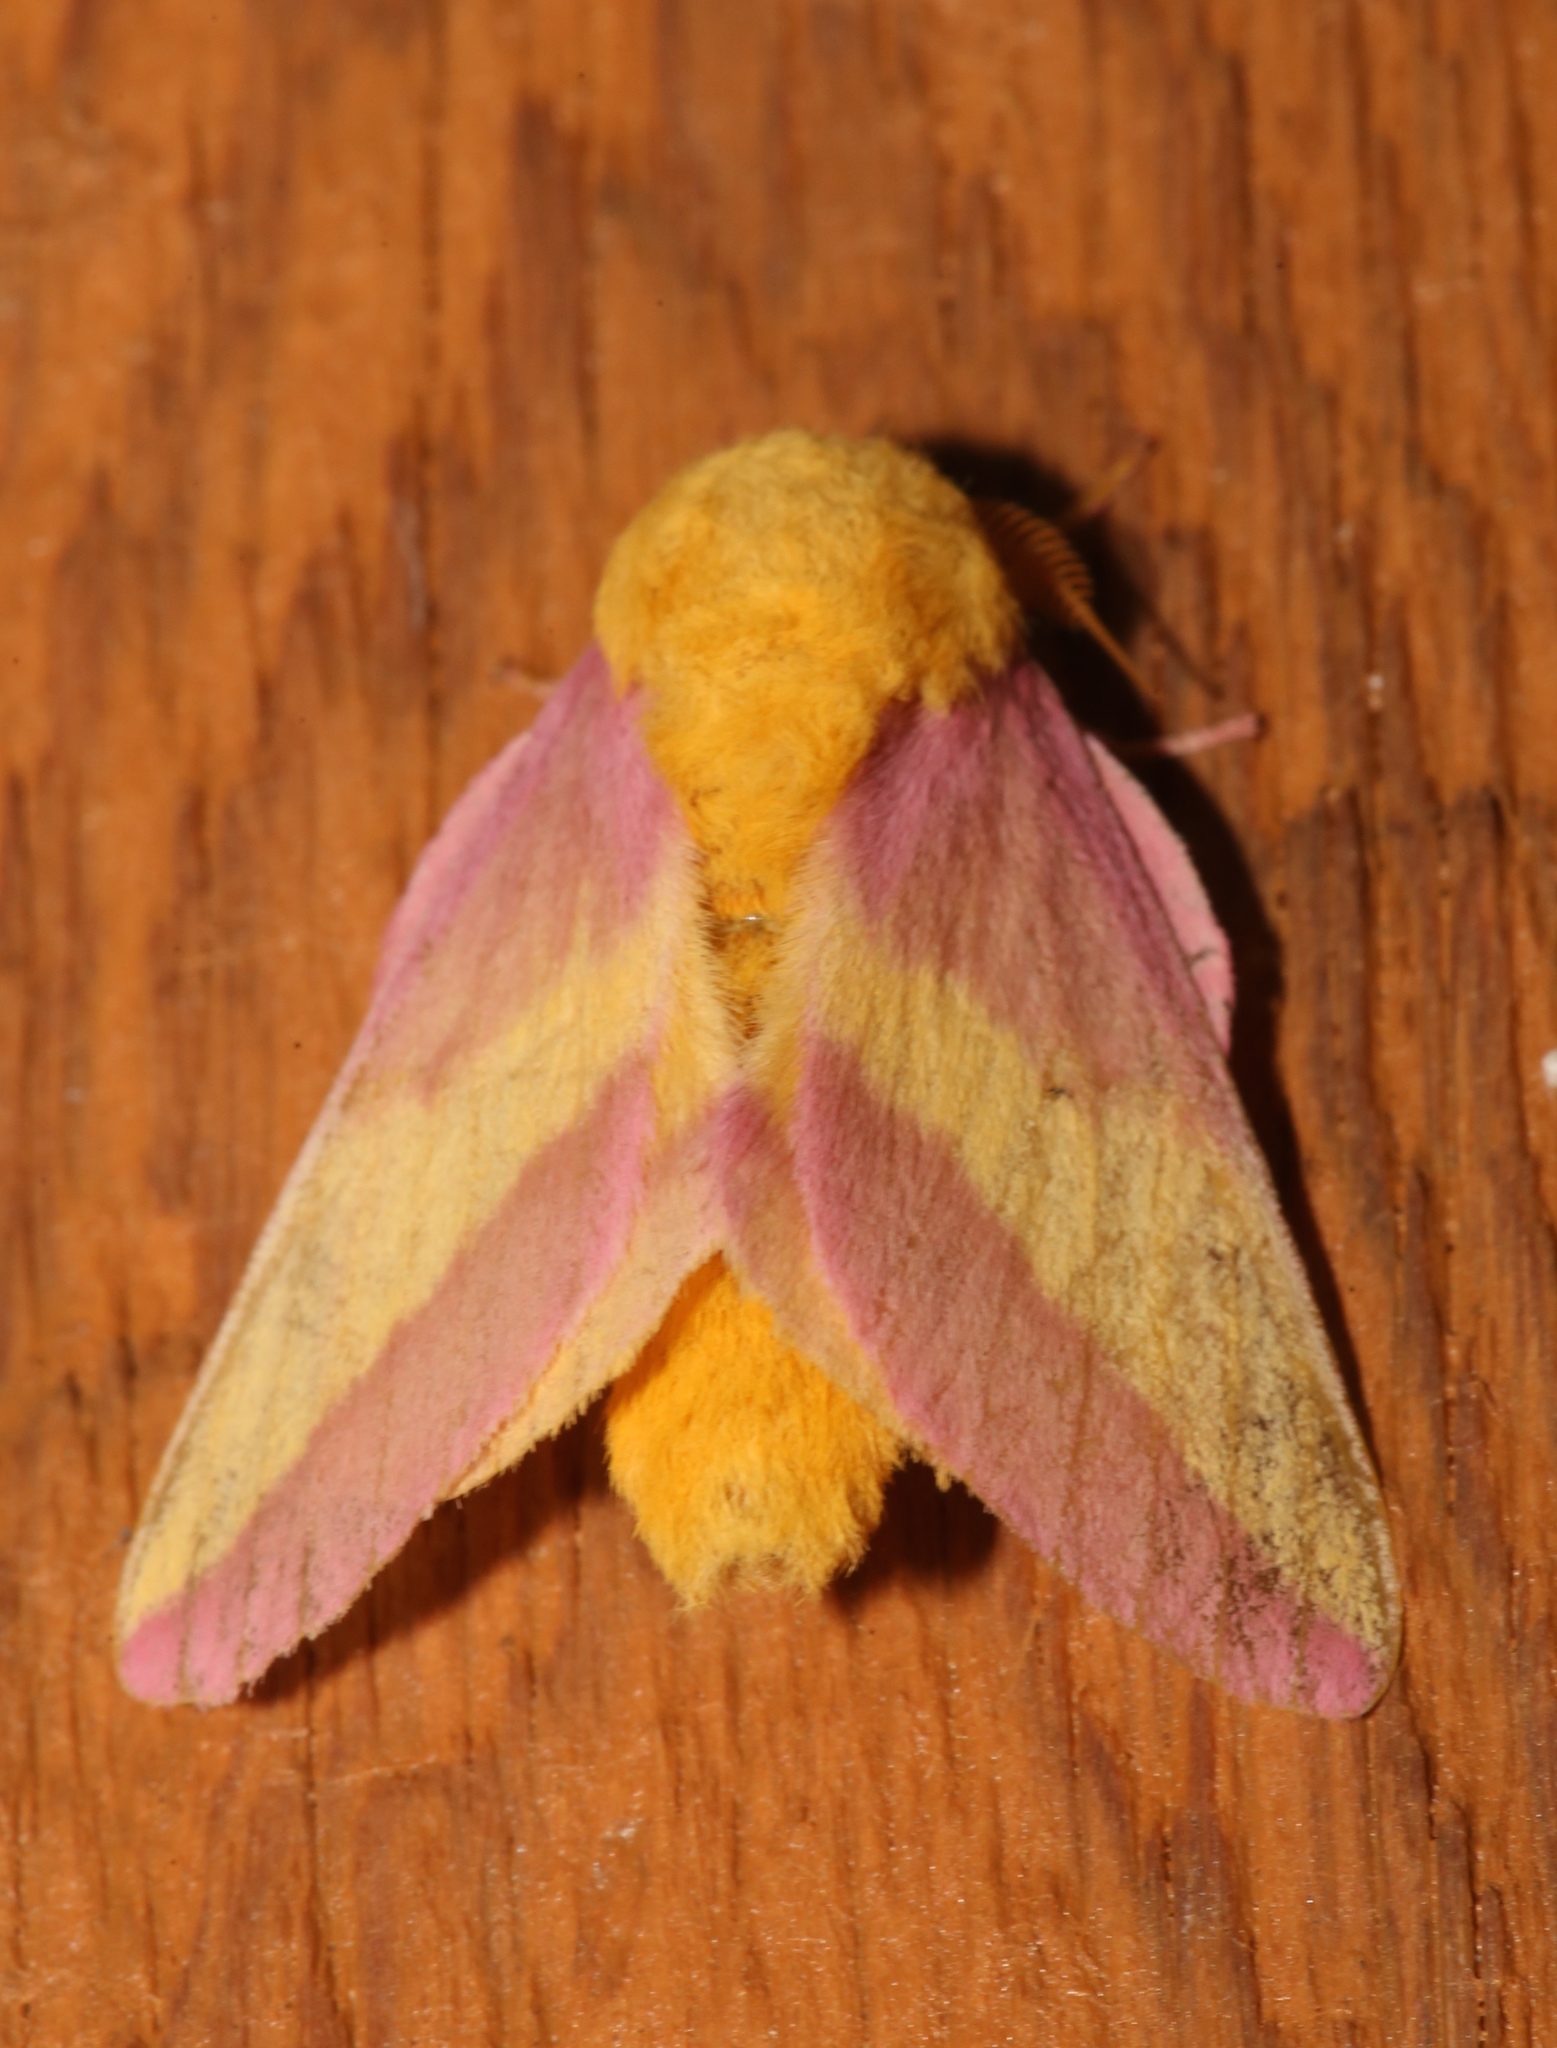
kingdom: Animalia
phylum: Arthropoda
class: Insecta
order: Lepidoptera
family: Saturniidae
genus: Dryocampa
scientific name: Dryocampa rubicunda
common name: Rosy maple moth
